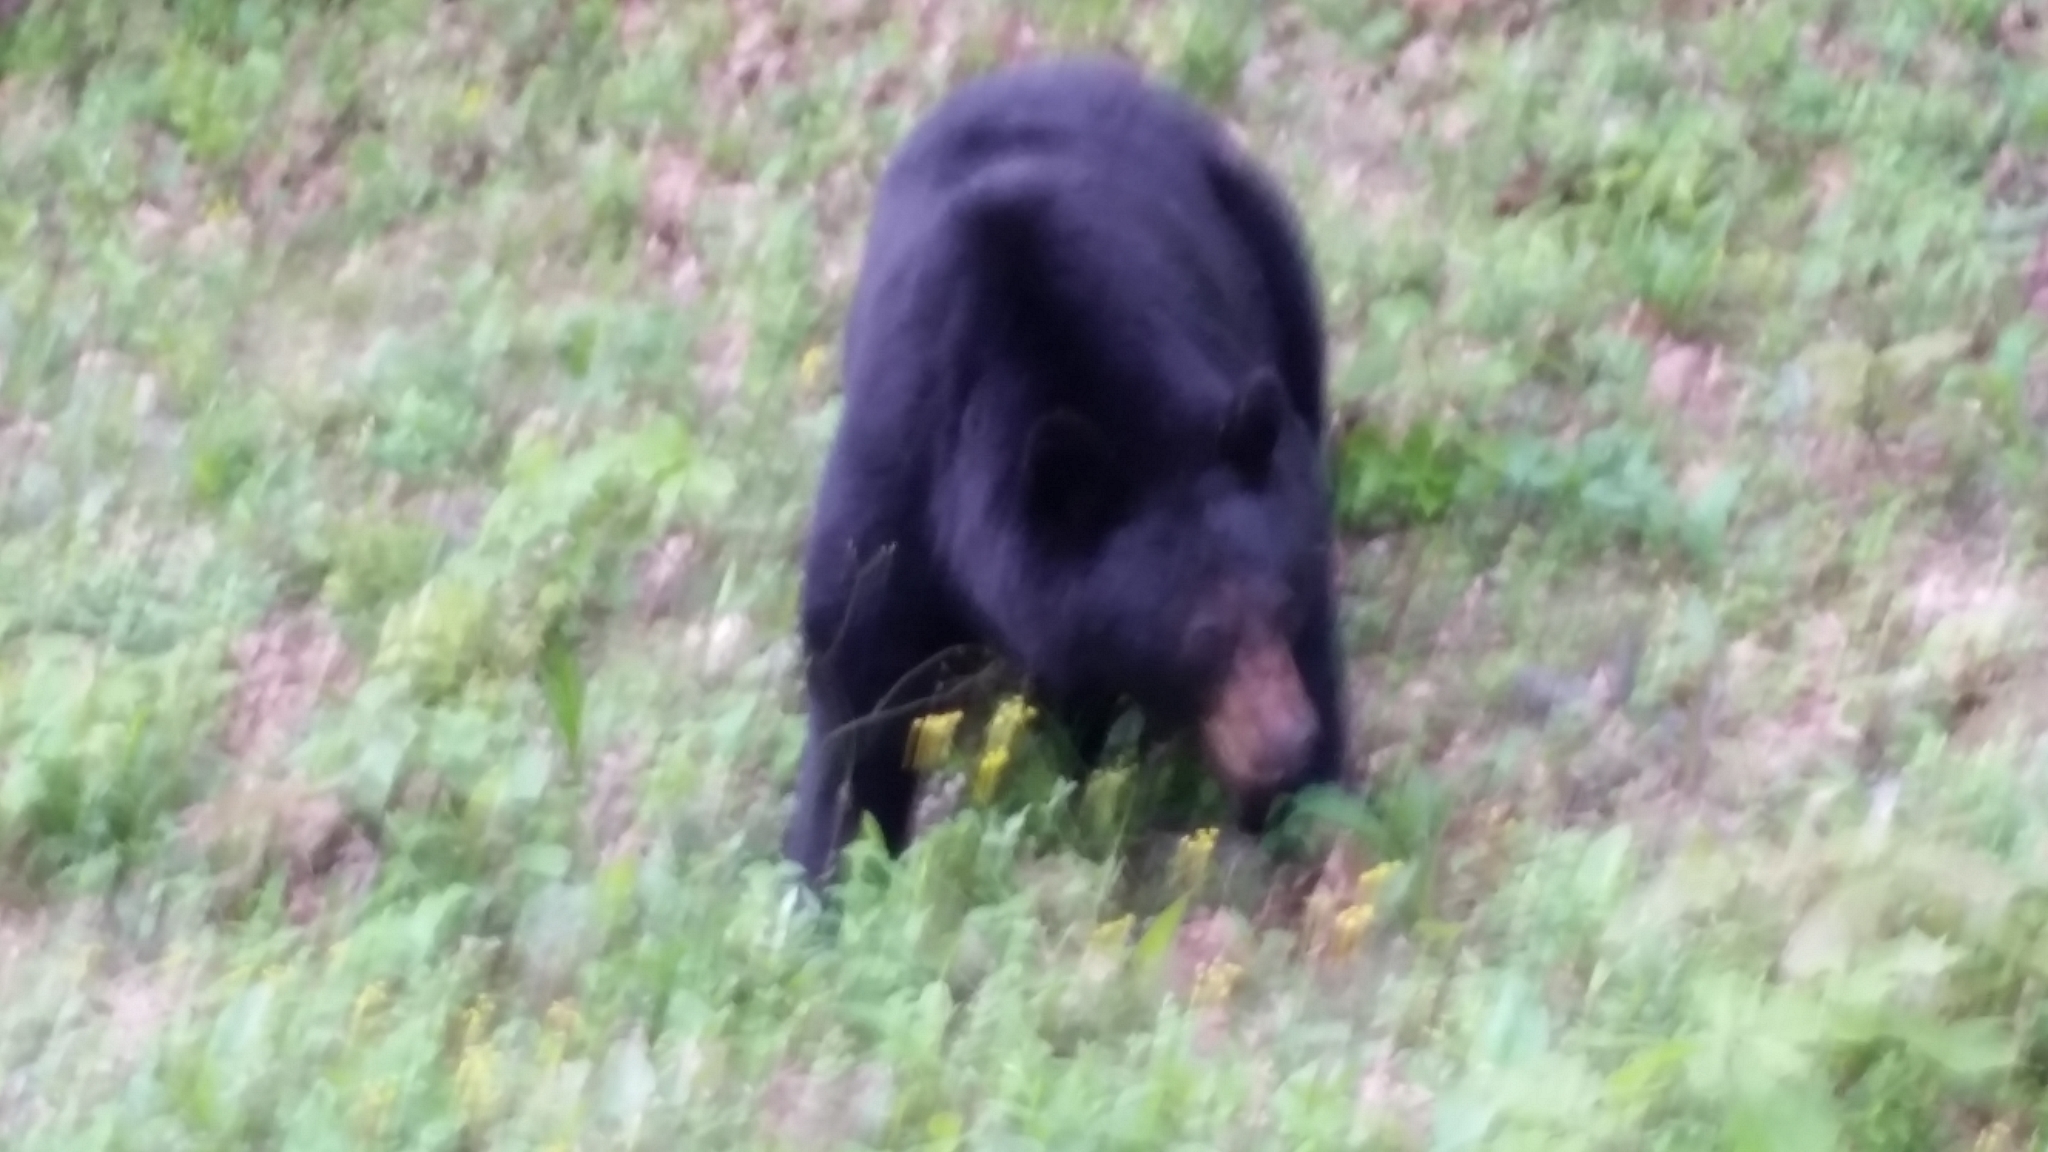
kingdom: Animalia
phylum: Chordata
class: Mammalia
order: Carnivora
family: Ursidae
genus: Ursus
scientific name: Ursus americanus
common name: American black bear
